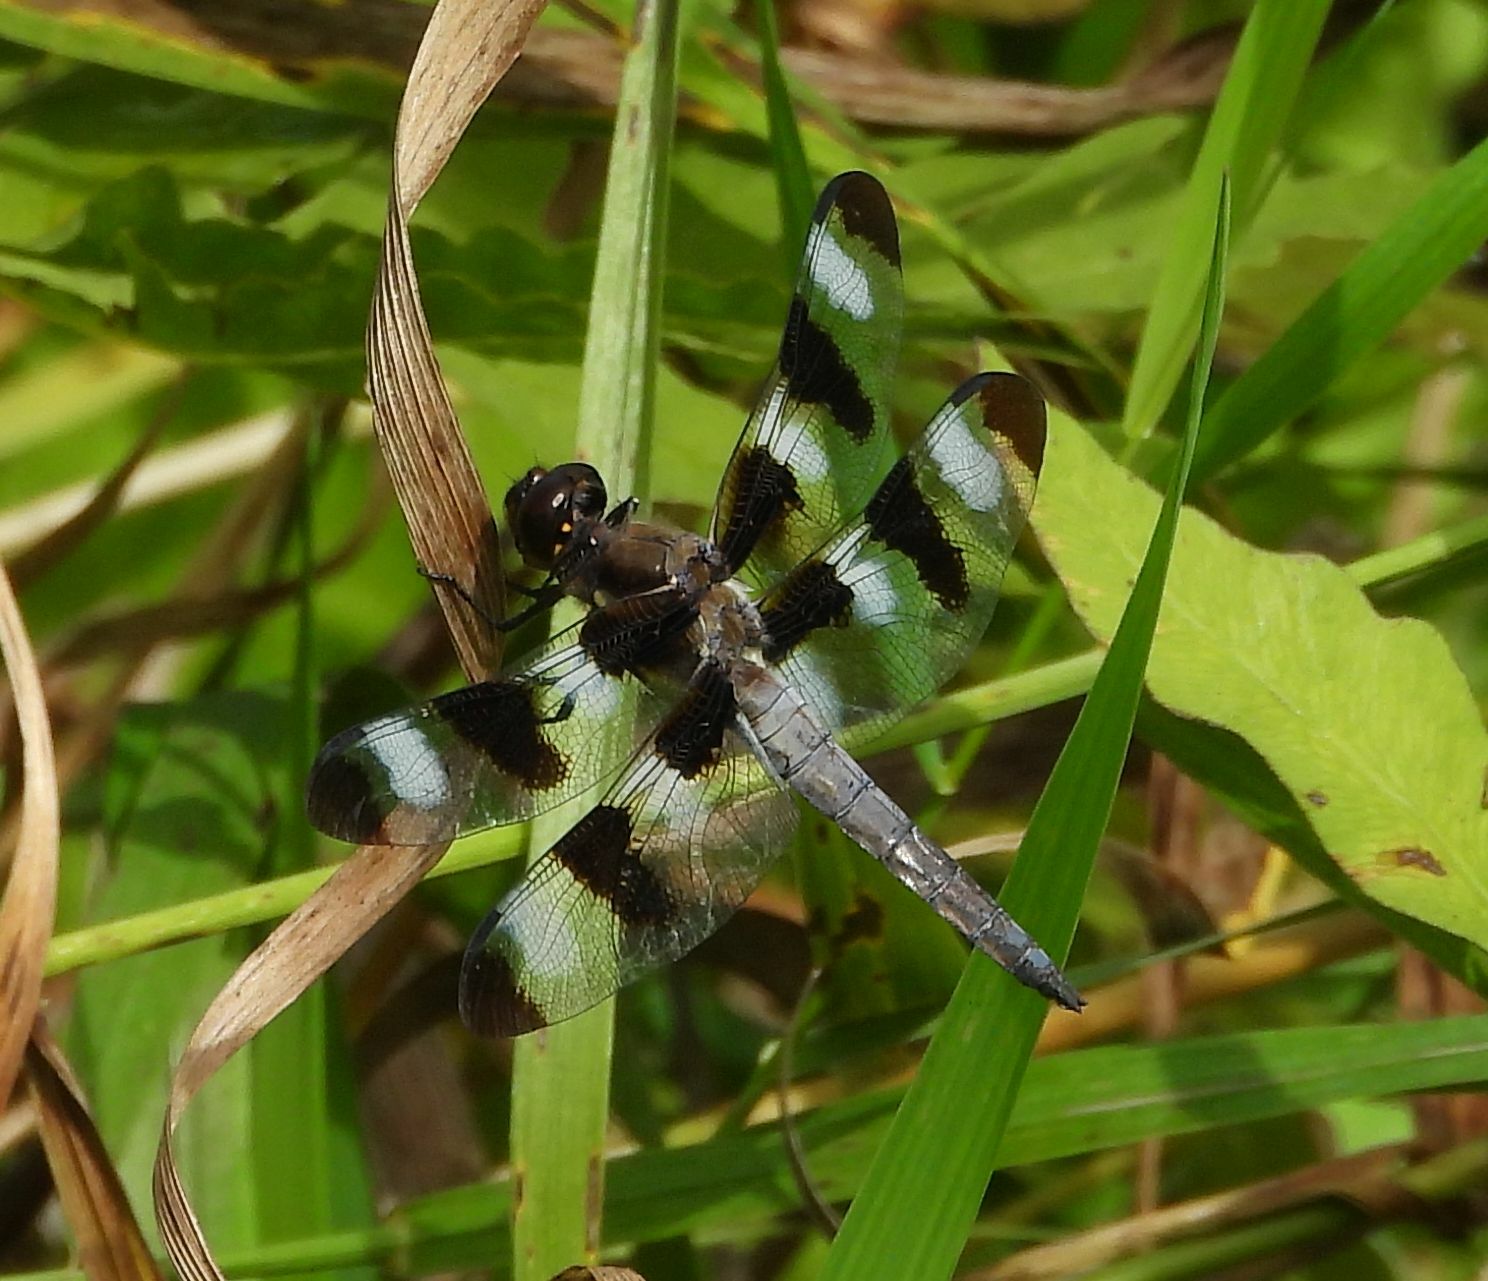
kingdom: Animalia
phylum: Arthropoda
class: Insecta
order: Odonata
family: Libellulidae
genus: Libellula
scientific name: Libellula pulchella
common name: Twelve-spotted skimmer
